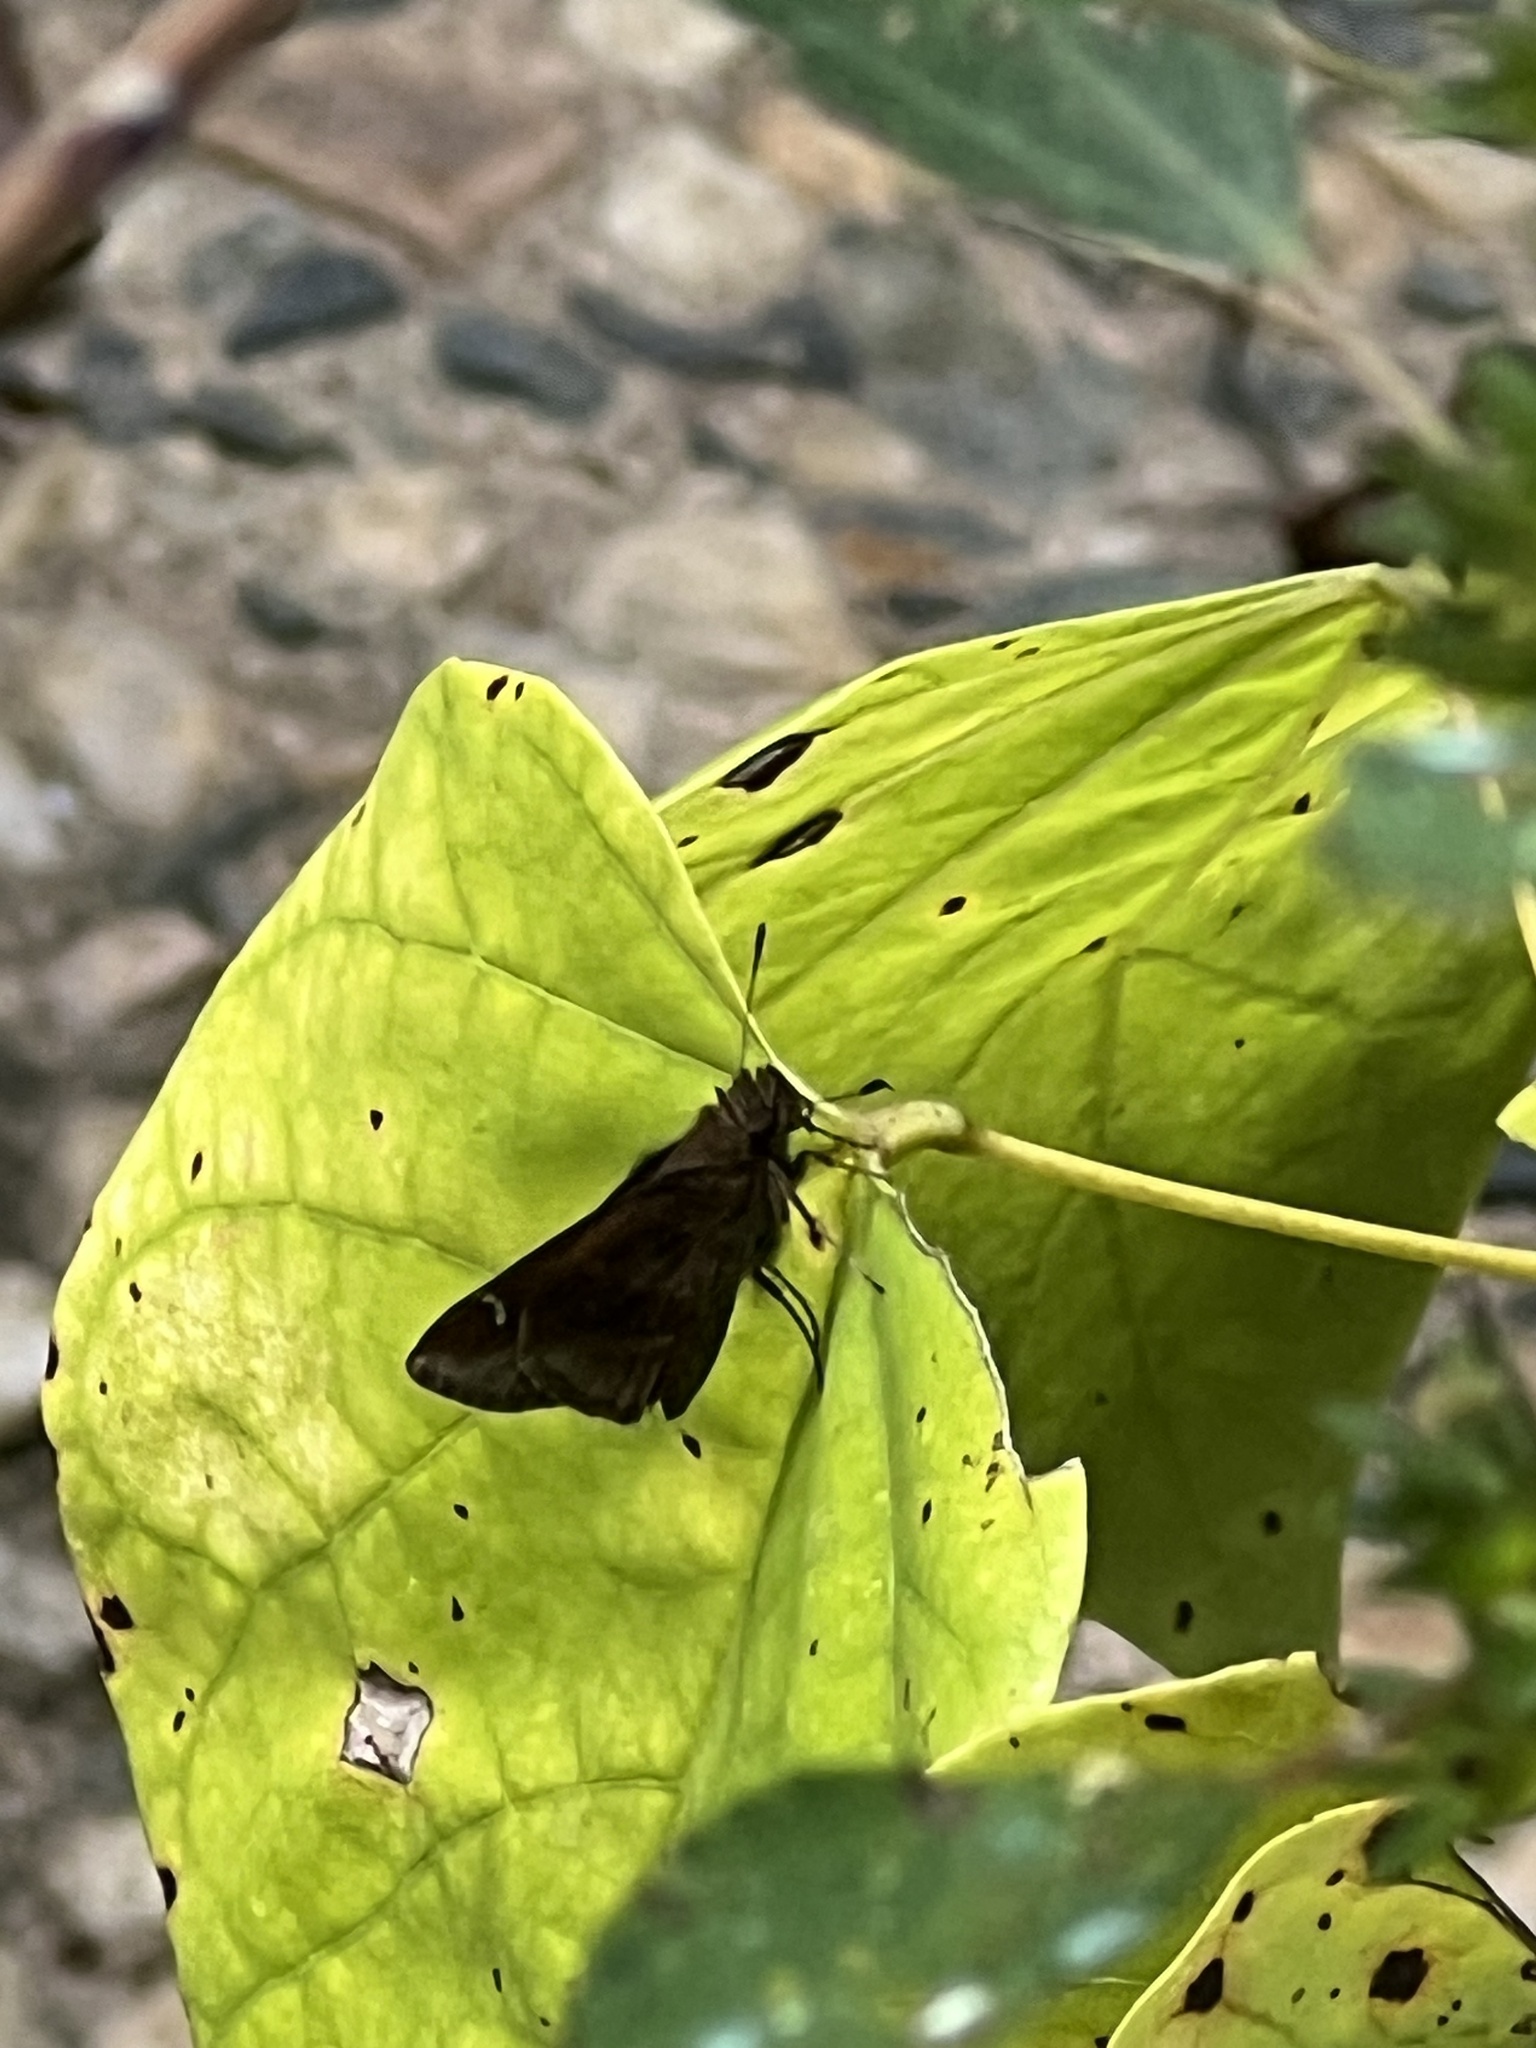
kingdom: Animalia
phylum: Arthropoda
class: Insecta
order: Lepidoptera
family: Hesperiidae
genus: Lerema
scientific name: Lerema accius
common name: Clouded skipper
